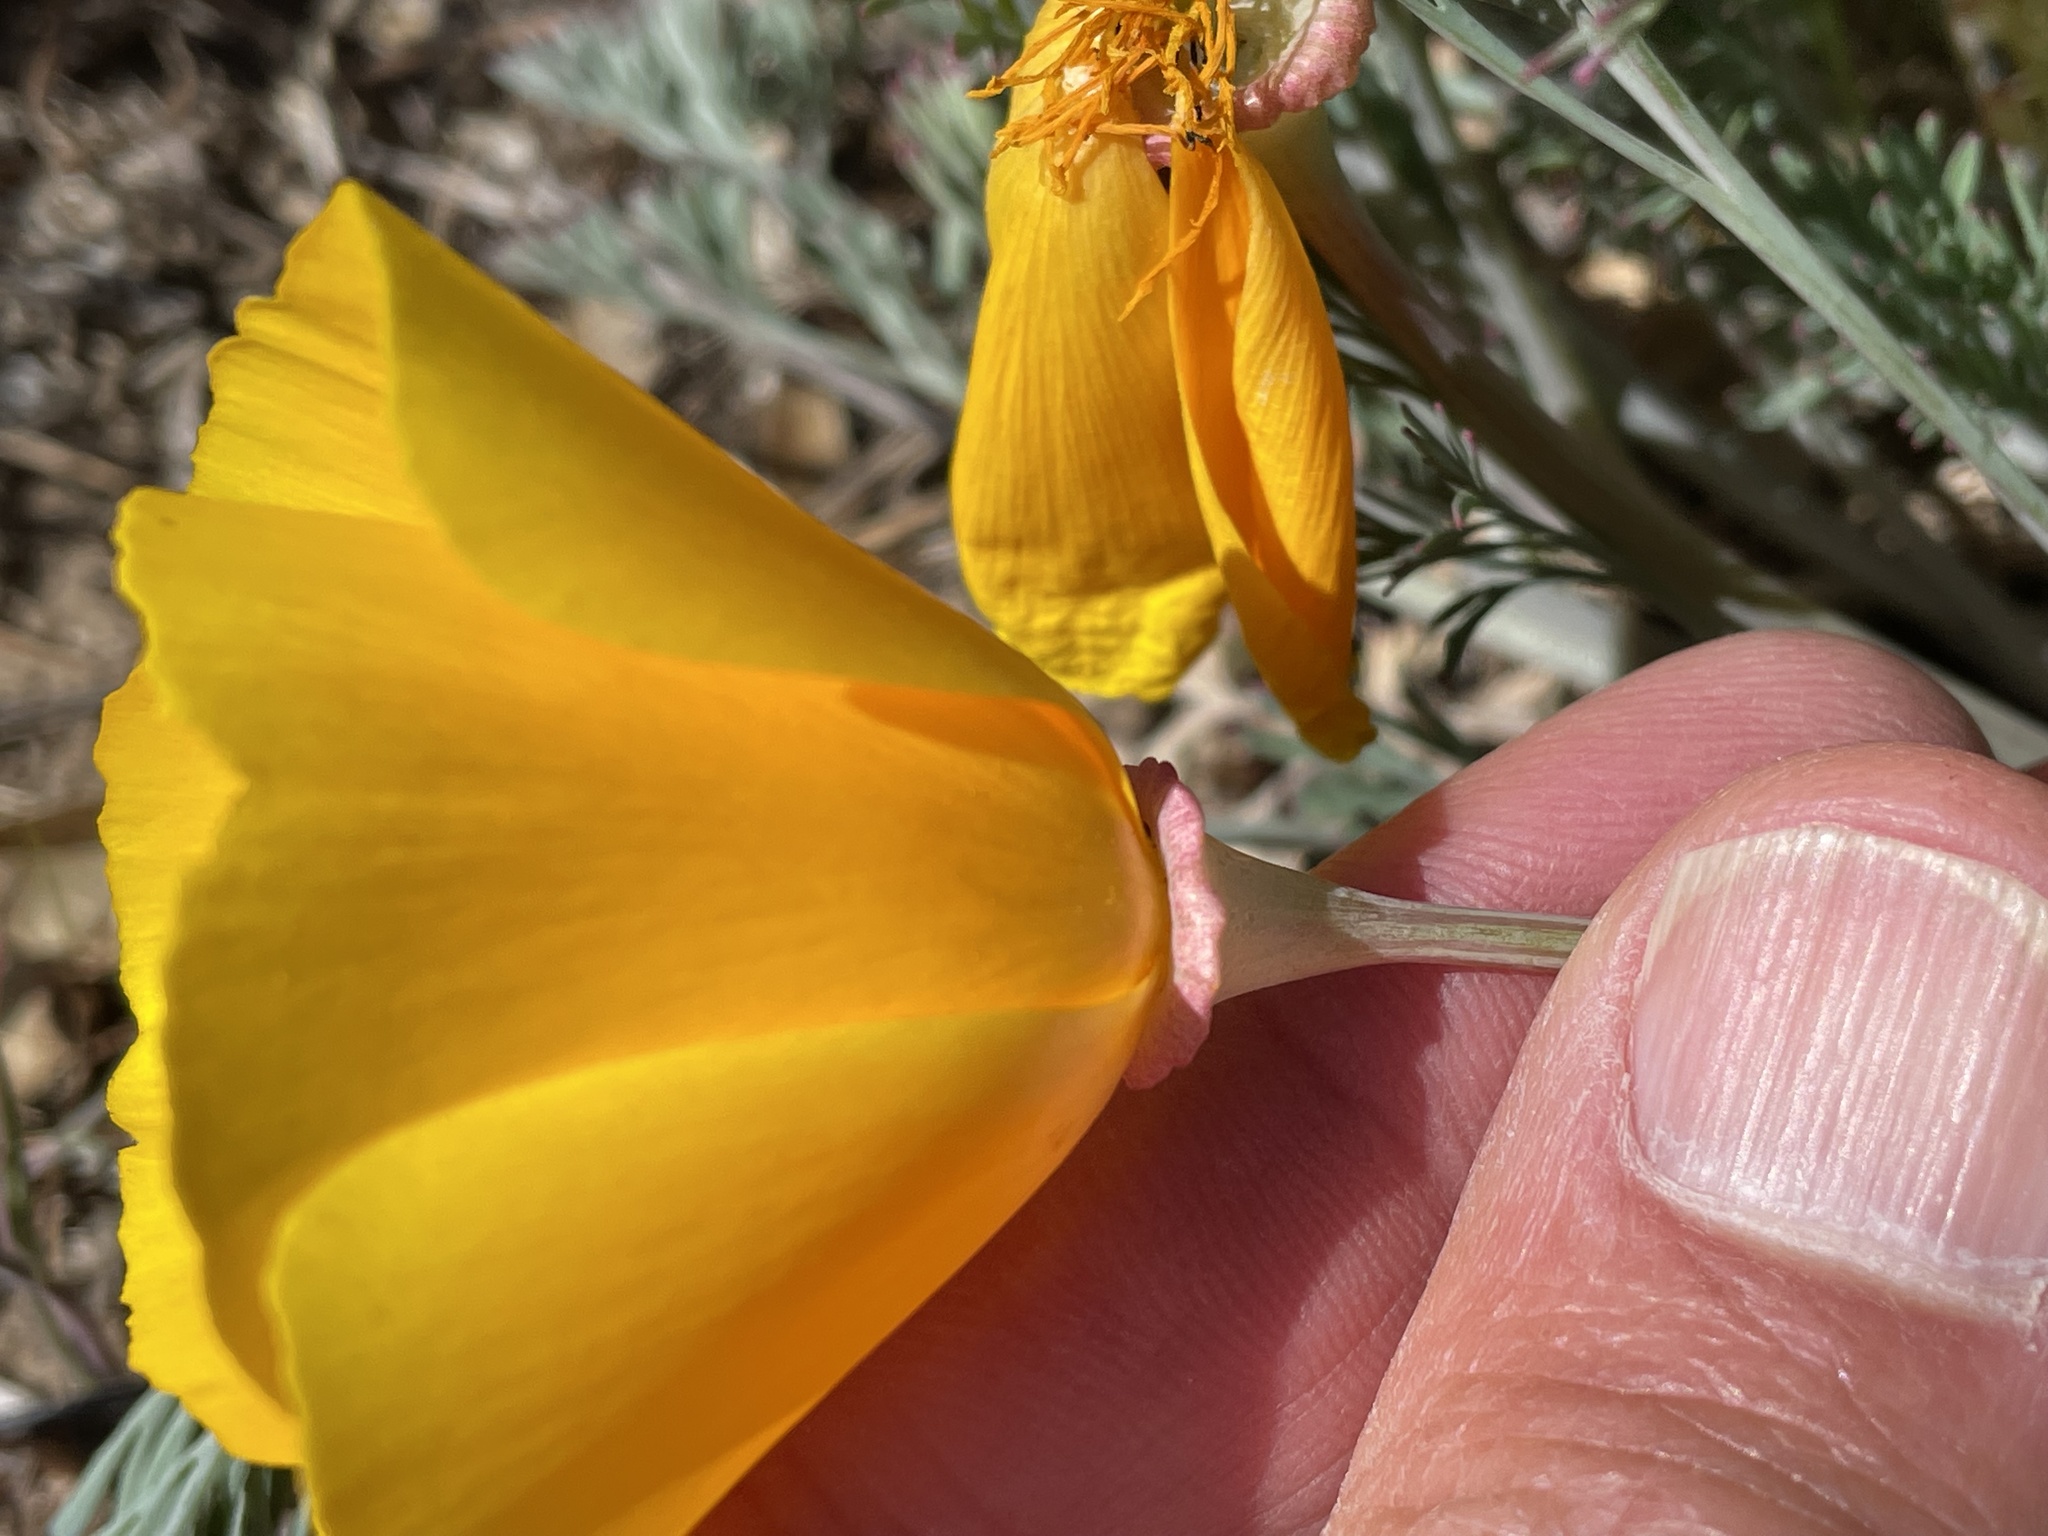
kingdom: Plantae
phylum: Tracheophyta
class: Magnoliopsida
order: Ranunculales
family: Papaveraceae
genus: Eschscholzia
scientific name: Eschscholzia californica
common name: California poppy
